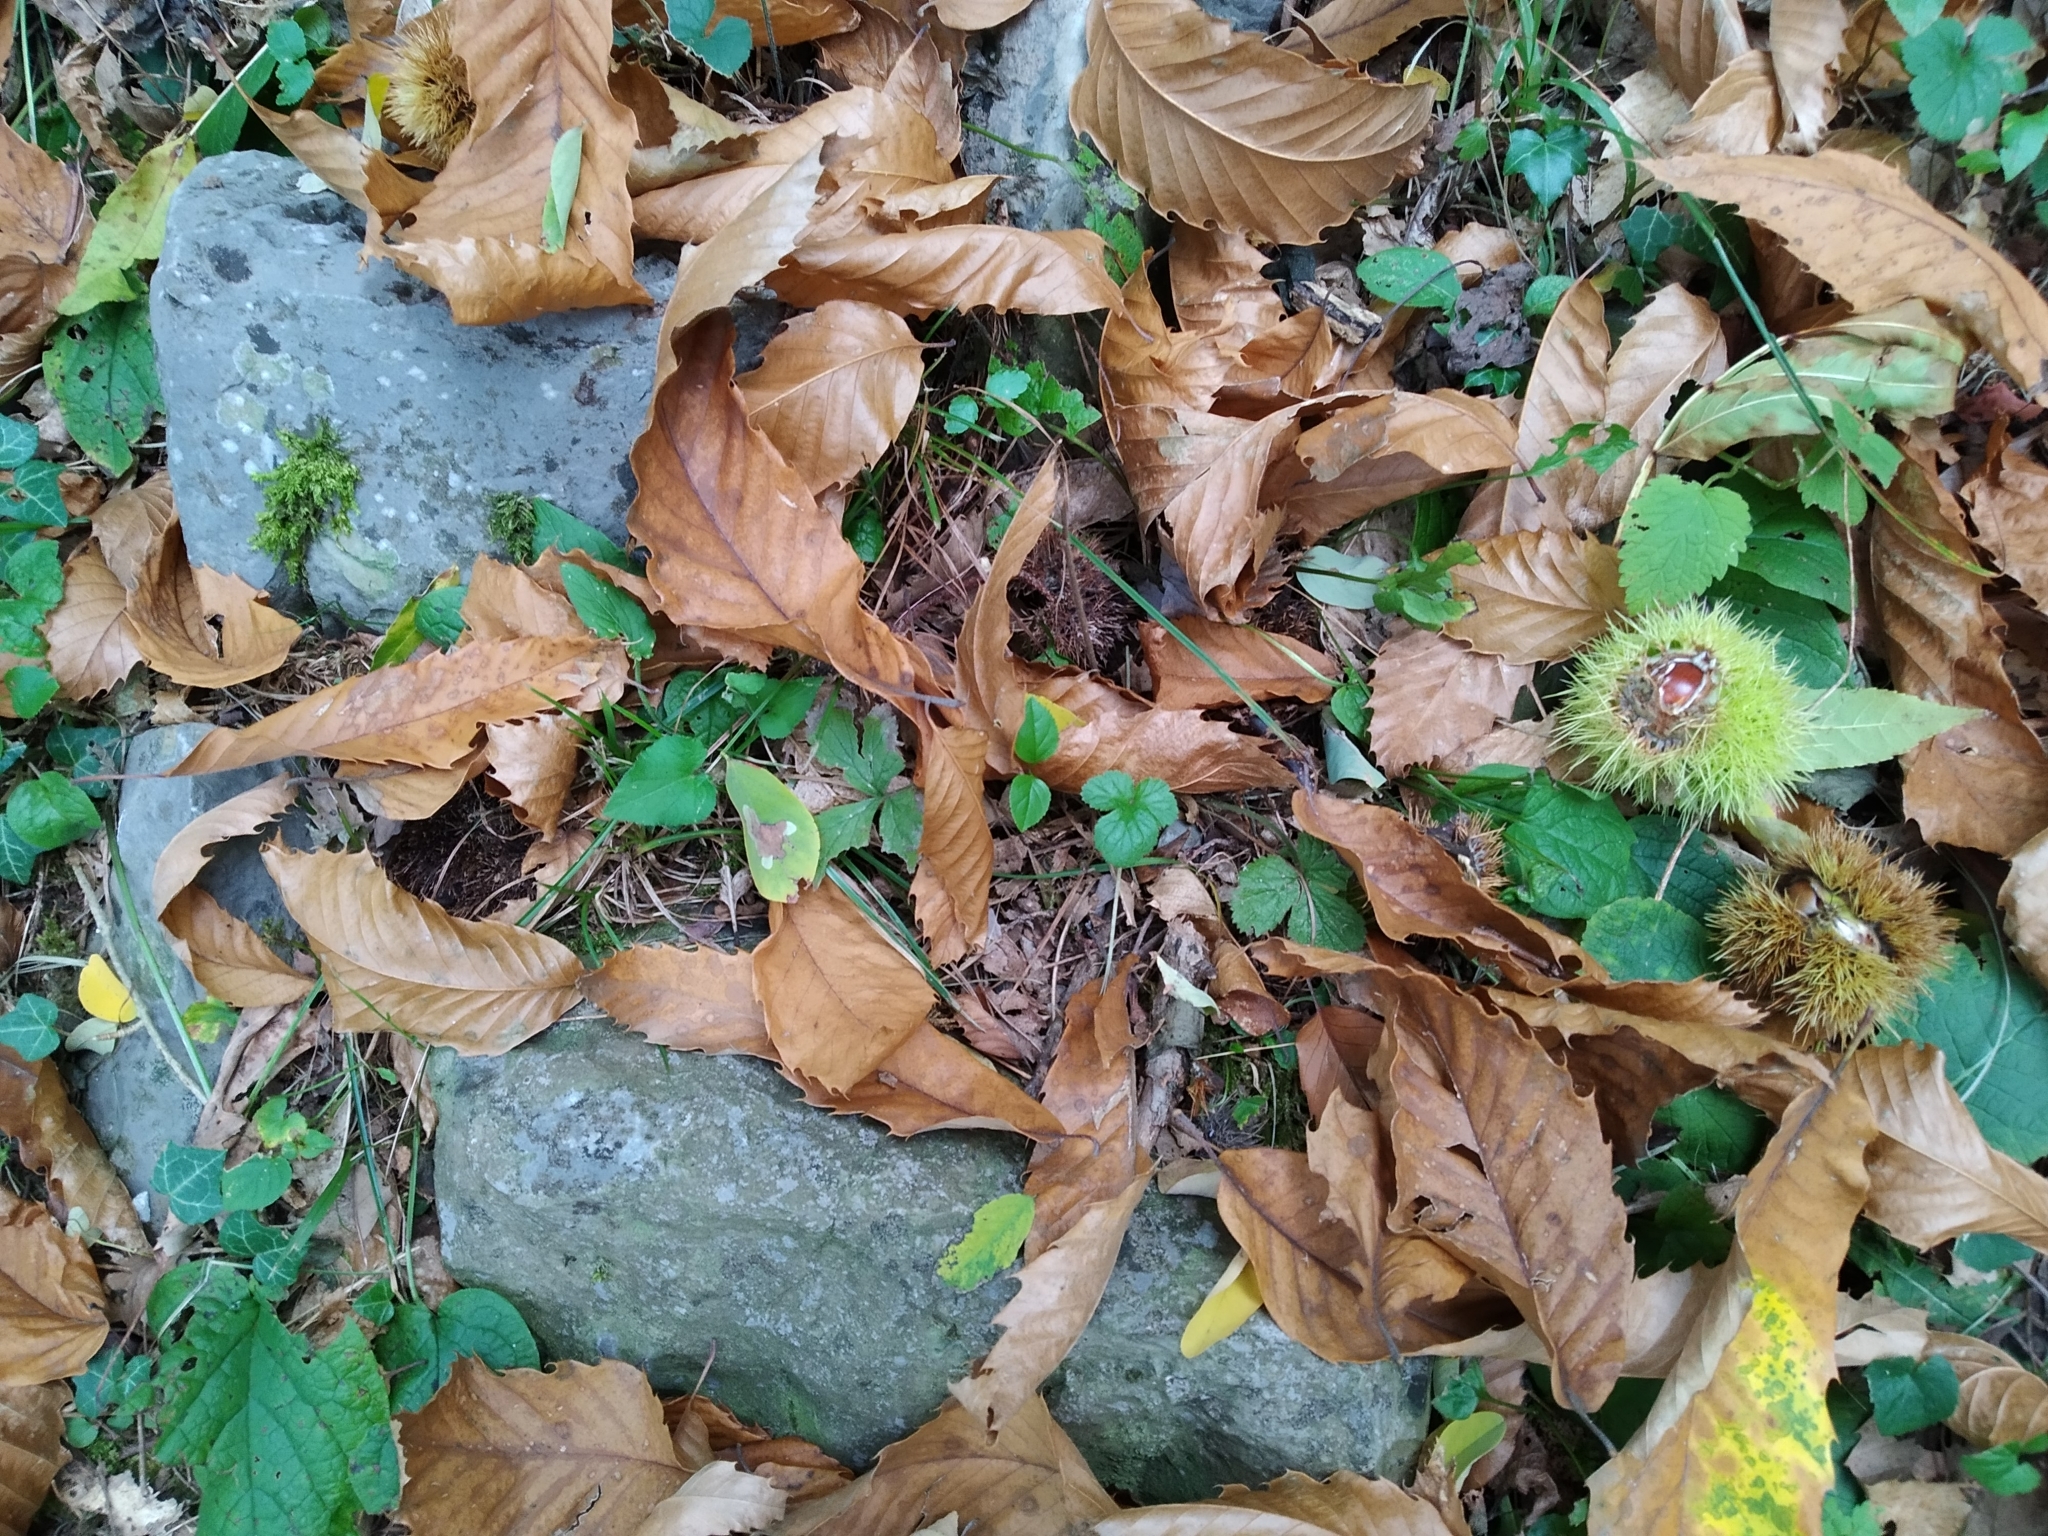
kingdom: Plantae
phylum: Tracheophyta
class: Magnoliopsida
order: Fagales
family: Fagaceae
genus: Castanea
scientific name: Castanea sativa
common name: Sweet chestnut
